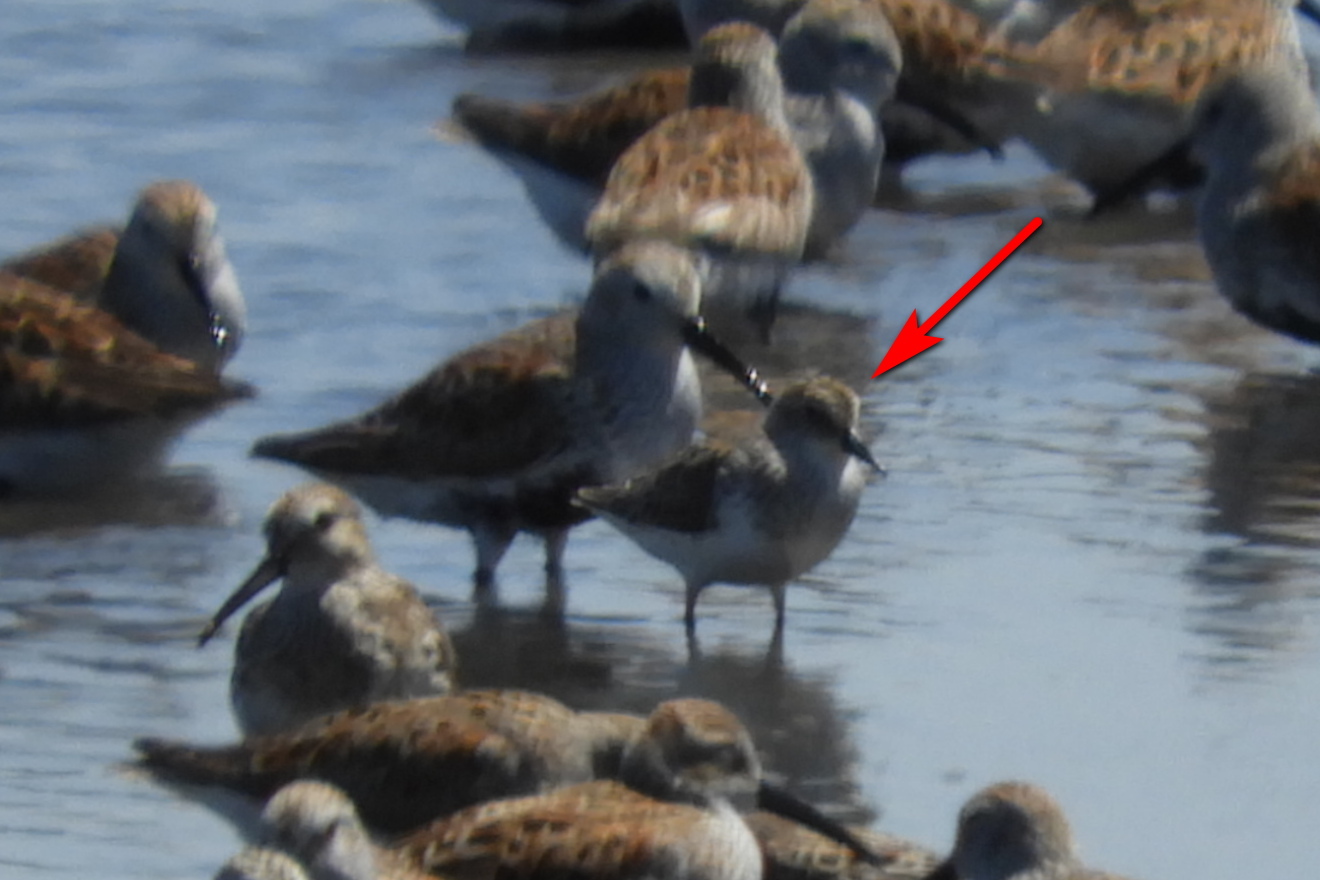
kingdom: Animalia
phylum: Chordata
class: Aves
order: Charadriiformes
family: Scolopacidae
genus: Calidris
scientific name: Calidris pusilla
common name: Semipalmated sandpiper
